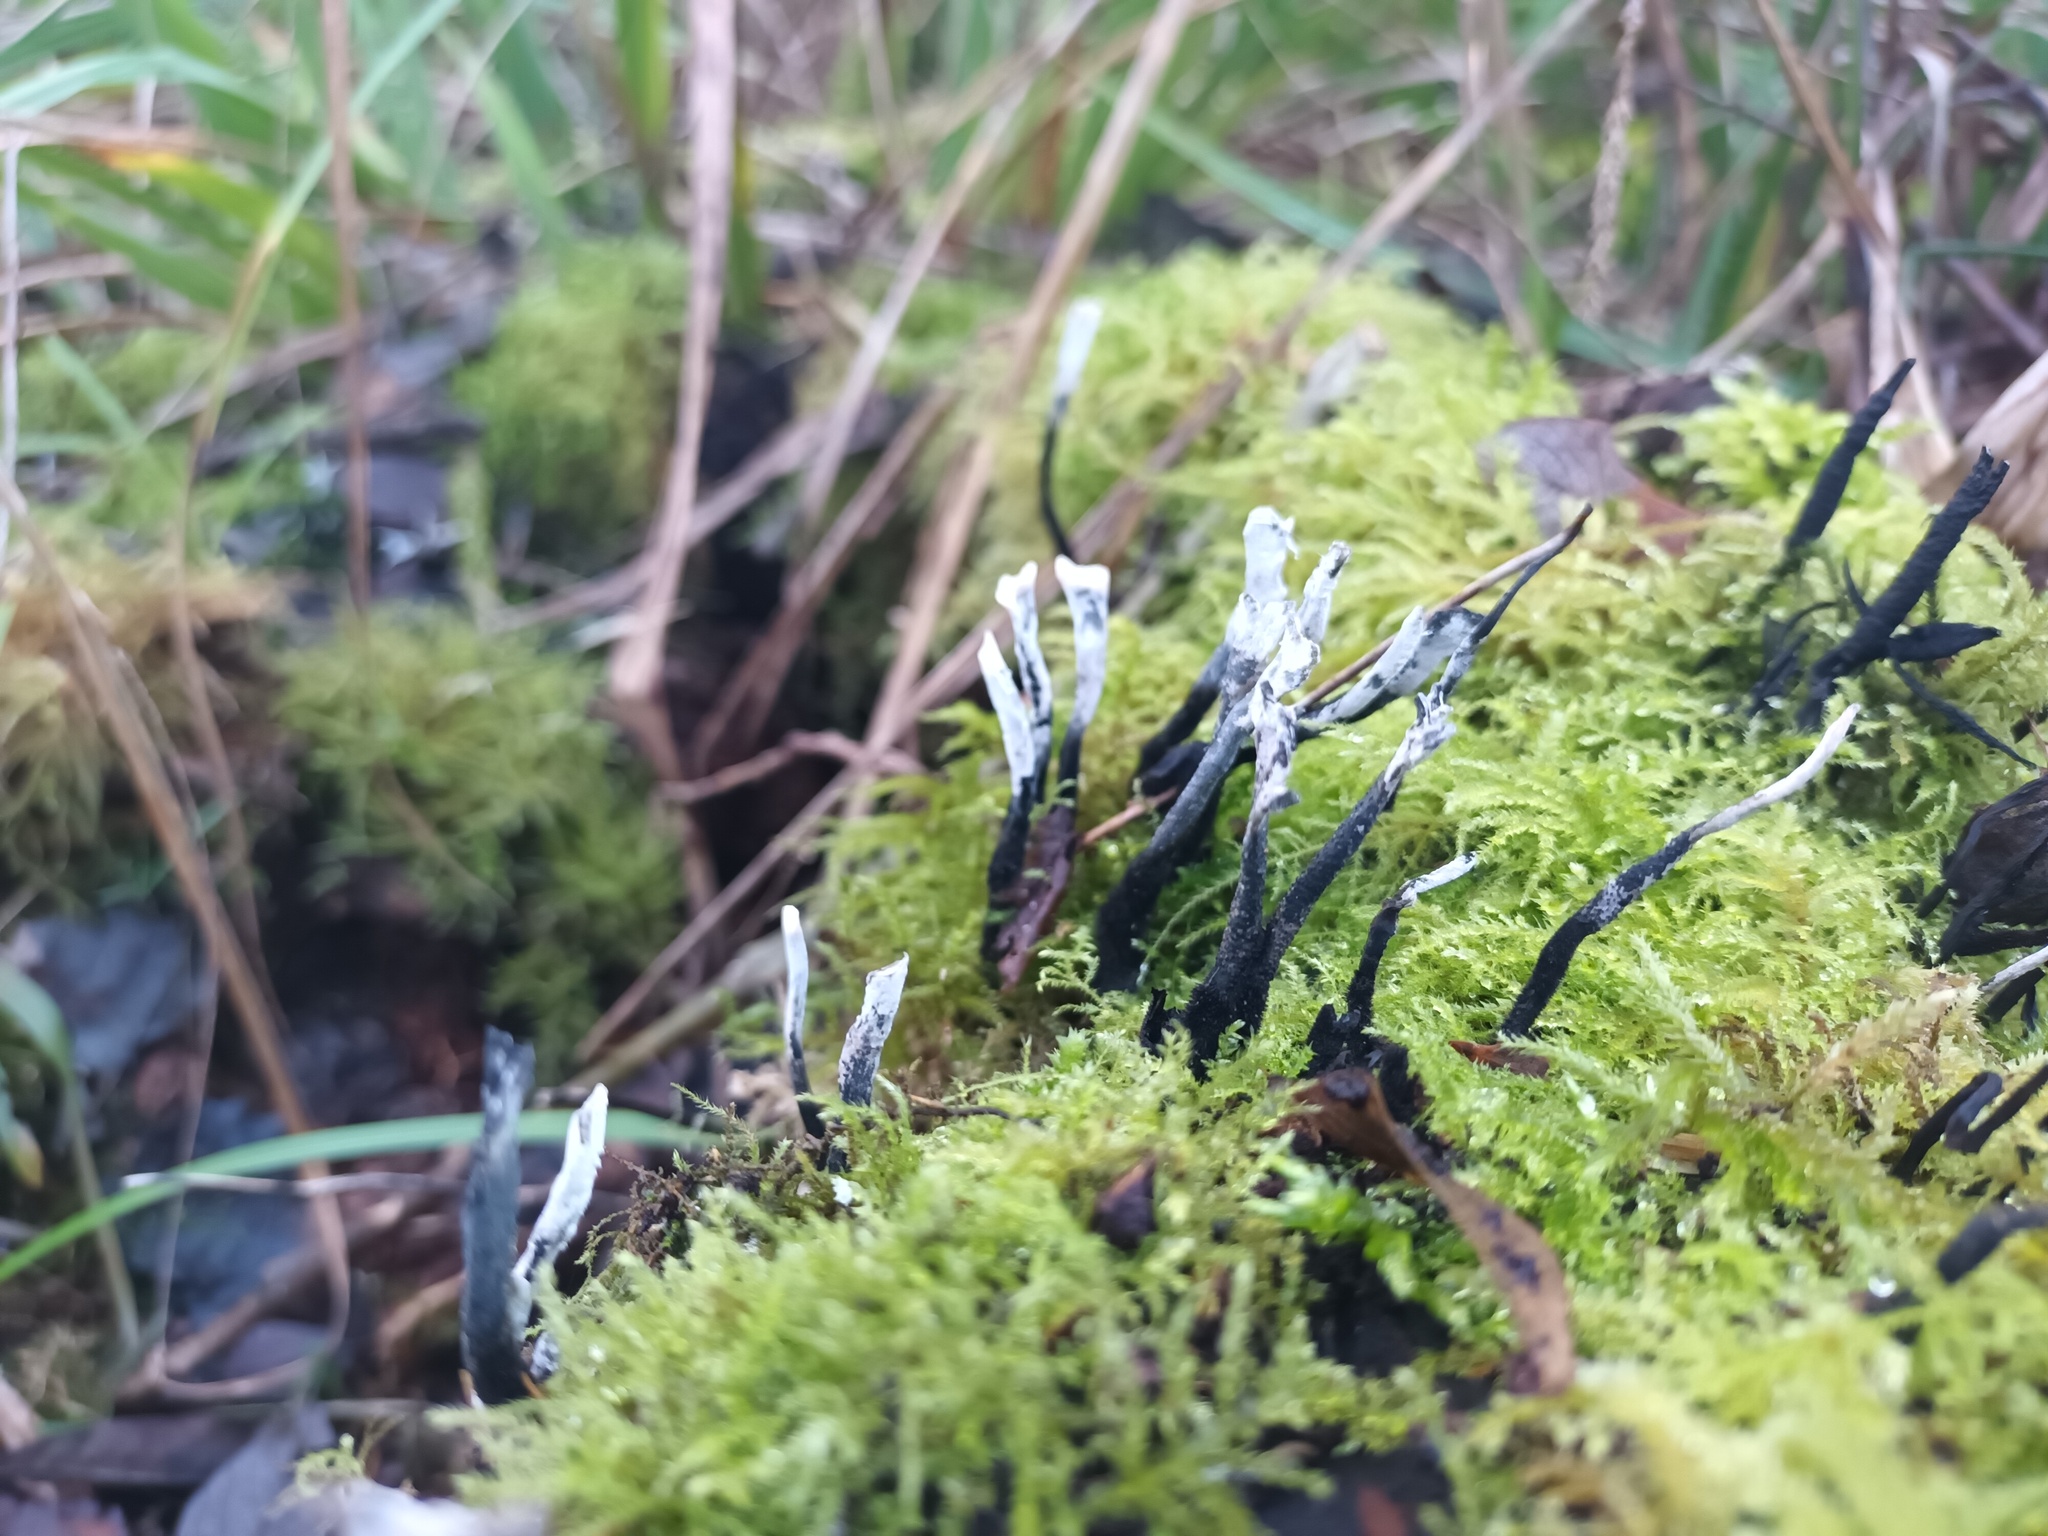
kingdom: Fungi
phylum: Ascomycota
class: Sordariomycetes
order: Xylariales
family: Xylariaceae
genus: Xylaria
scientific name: Xylaria hypoxylon
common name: Candle-snuff fungus
